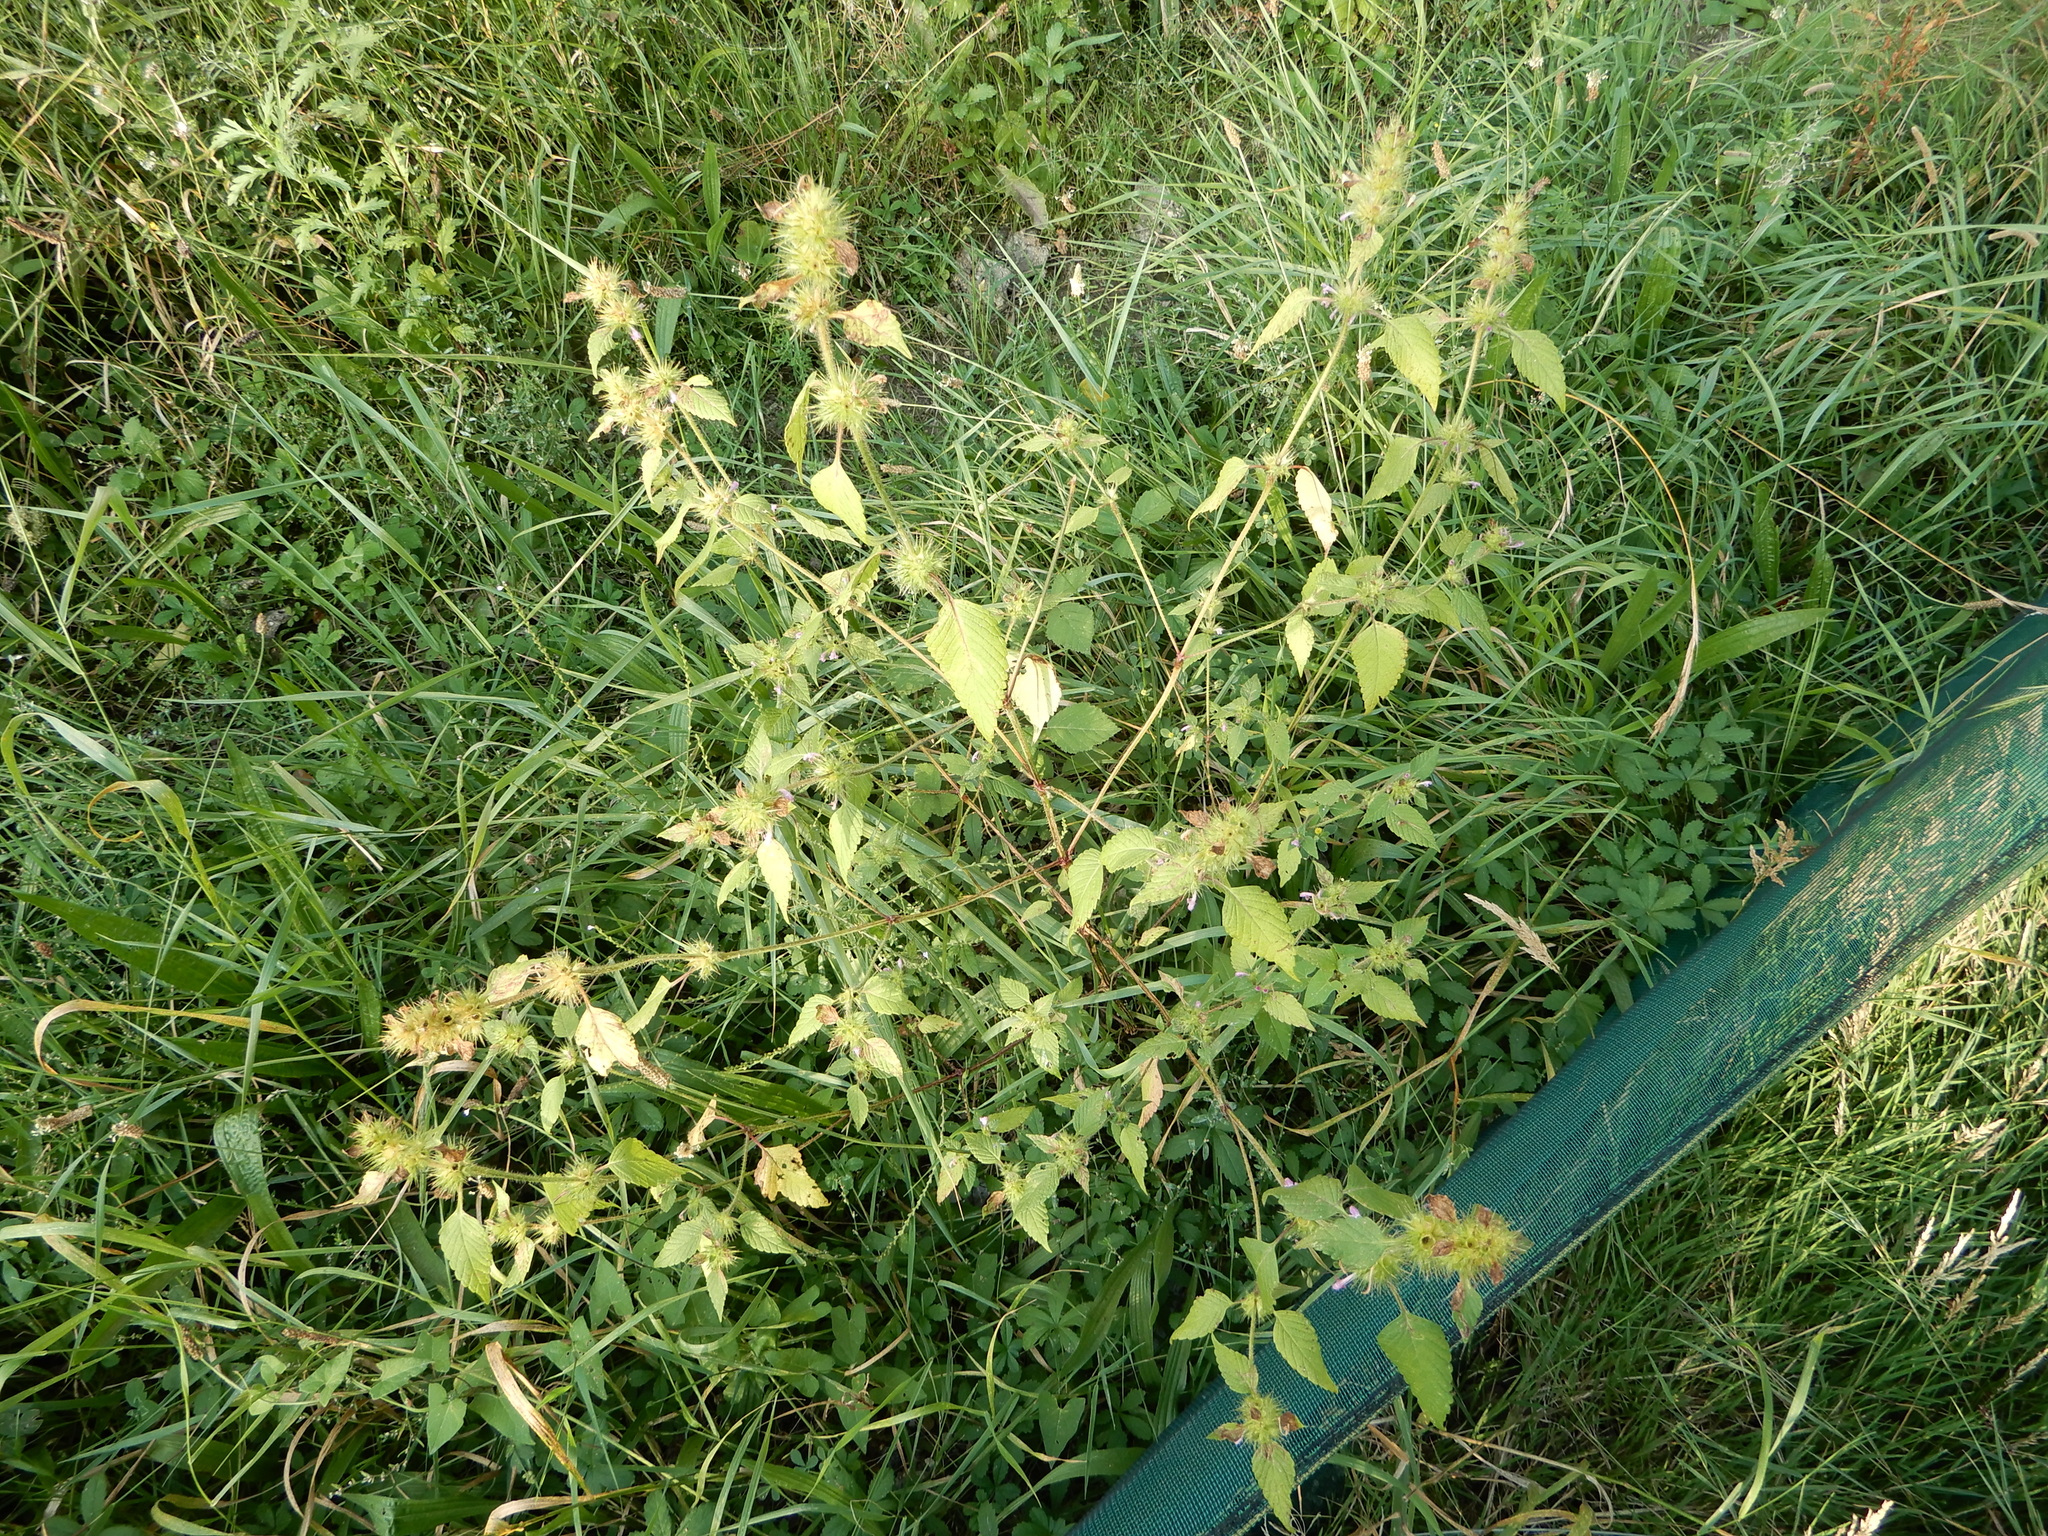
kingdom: Plantae
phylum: Tracheophyta
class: Magnoliopsida
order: Lamiales
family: Lamiaceae
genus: Galeopsis
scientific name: Galeopsis tetrahit
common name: Common hemp-nettle
